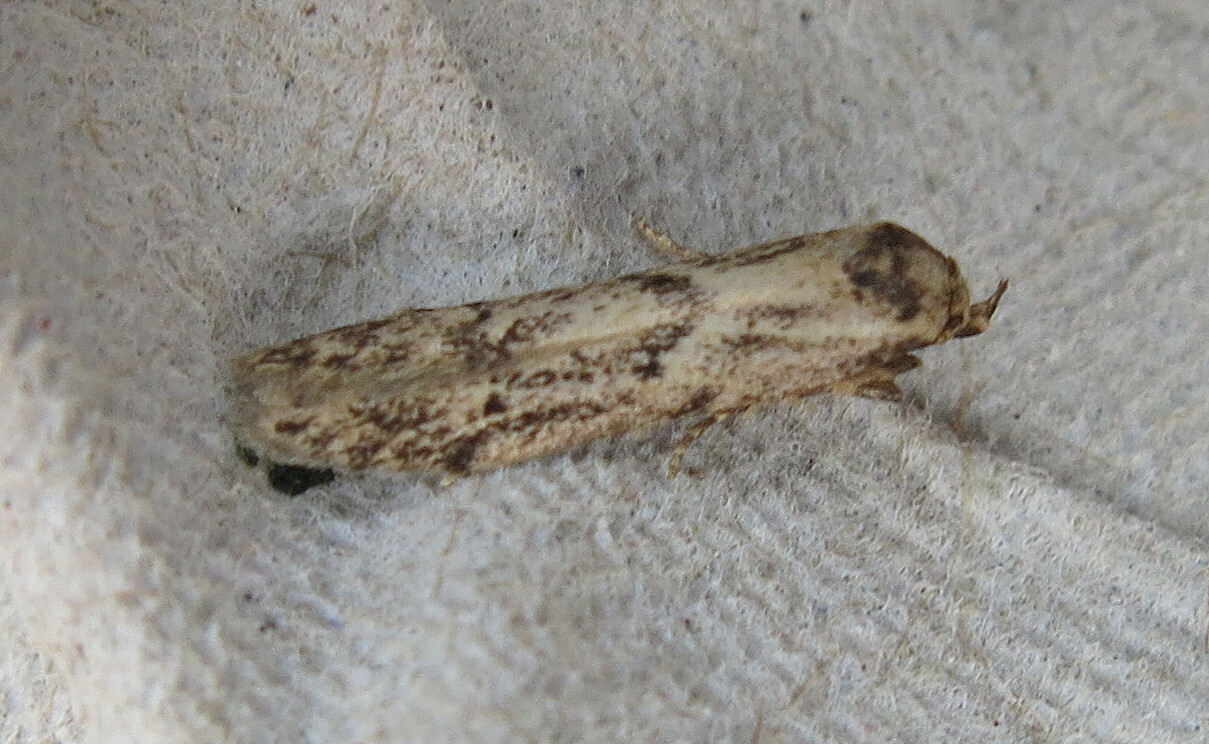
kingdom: Animalia
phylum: Arthropoda
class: Insecta
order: Lepidoptera
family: Blastobasidae
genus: Blastobasis
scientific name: Blastobasis adustella
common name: Dingy dowd
